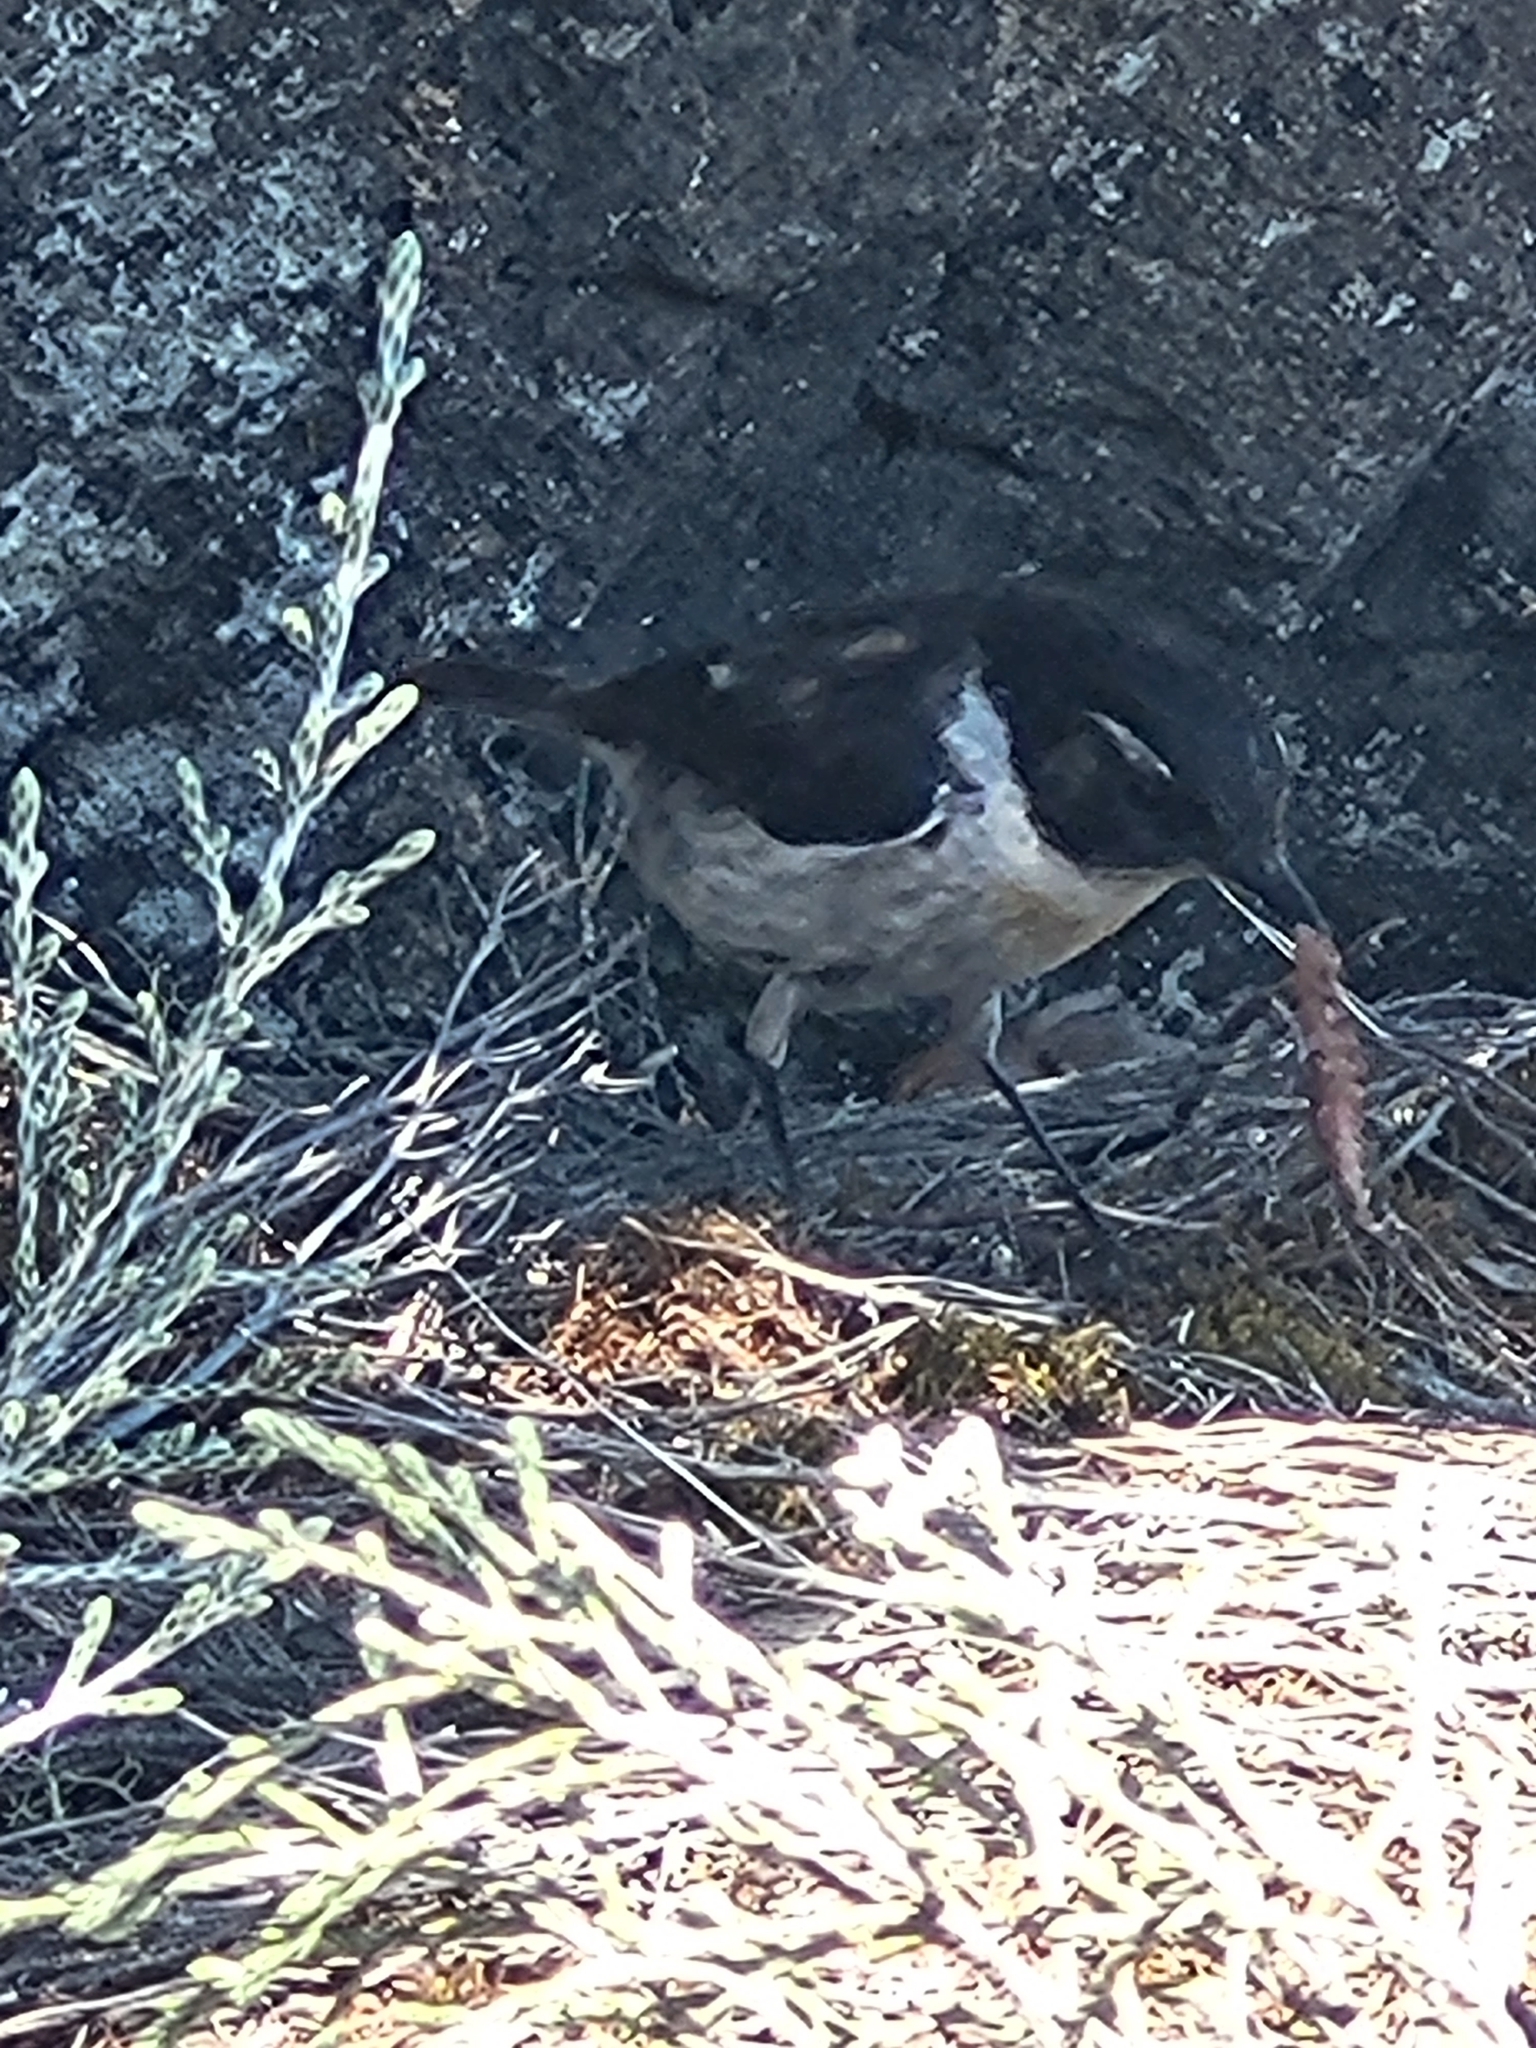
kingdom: Animalia
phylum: Chordata
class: Aves
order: Passeriformes
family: Muscicapidae
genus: Saxicola
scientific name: Saxicola tectes
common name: Reunion stonechat
